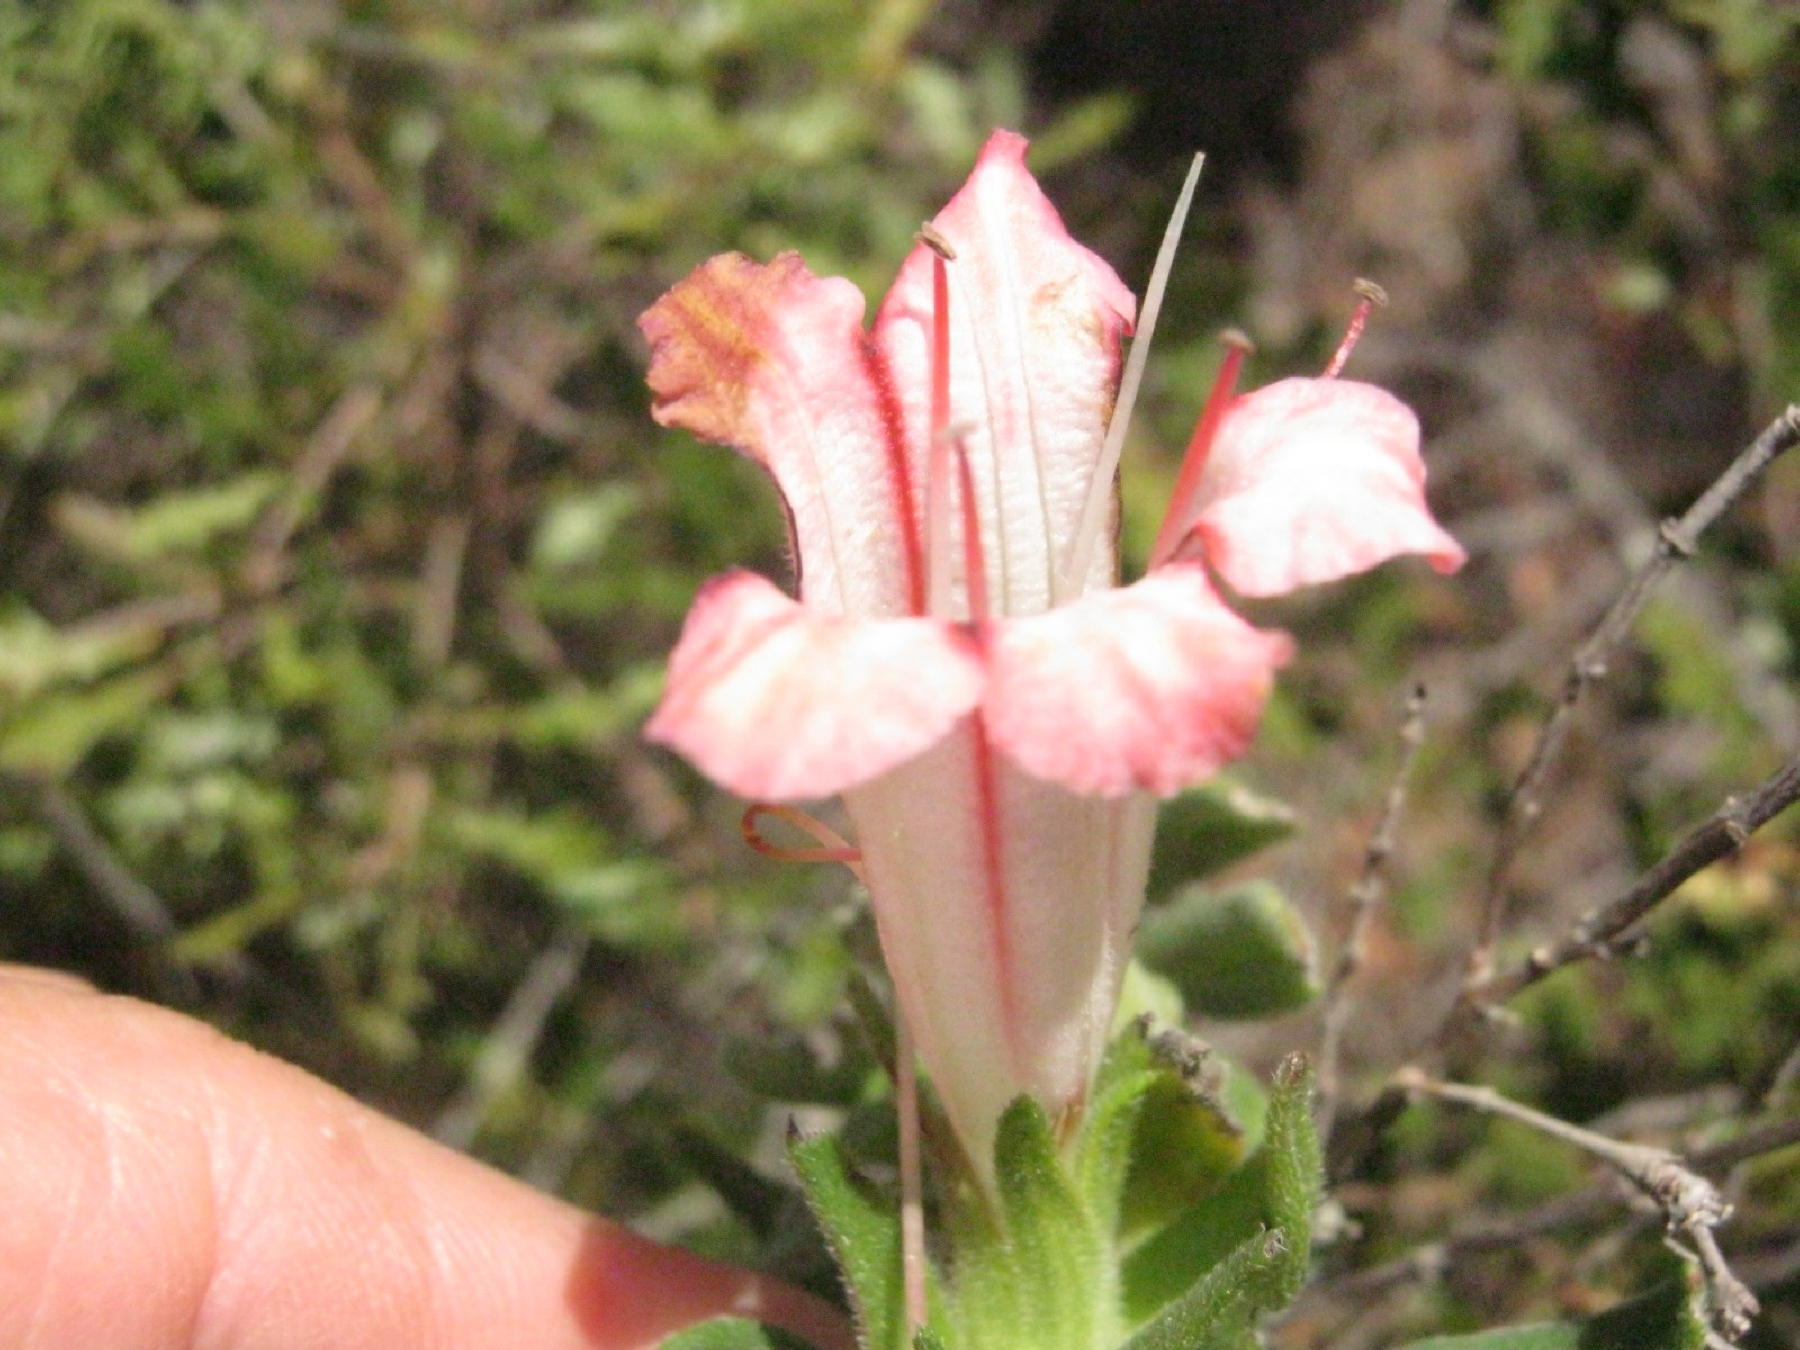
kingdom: Plantae
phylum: Tracheophyta
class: Magnoliopsida
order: Boraginales
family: Boraginaceae
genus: Lobostemon
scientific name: Lobostemon belliformis
